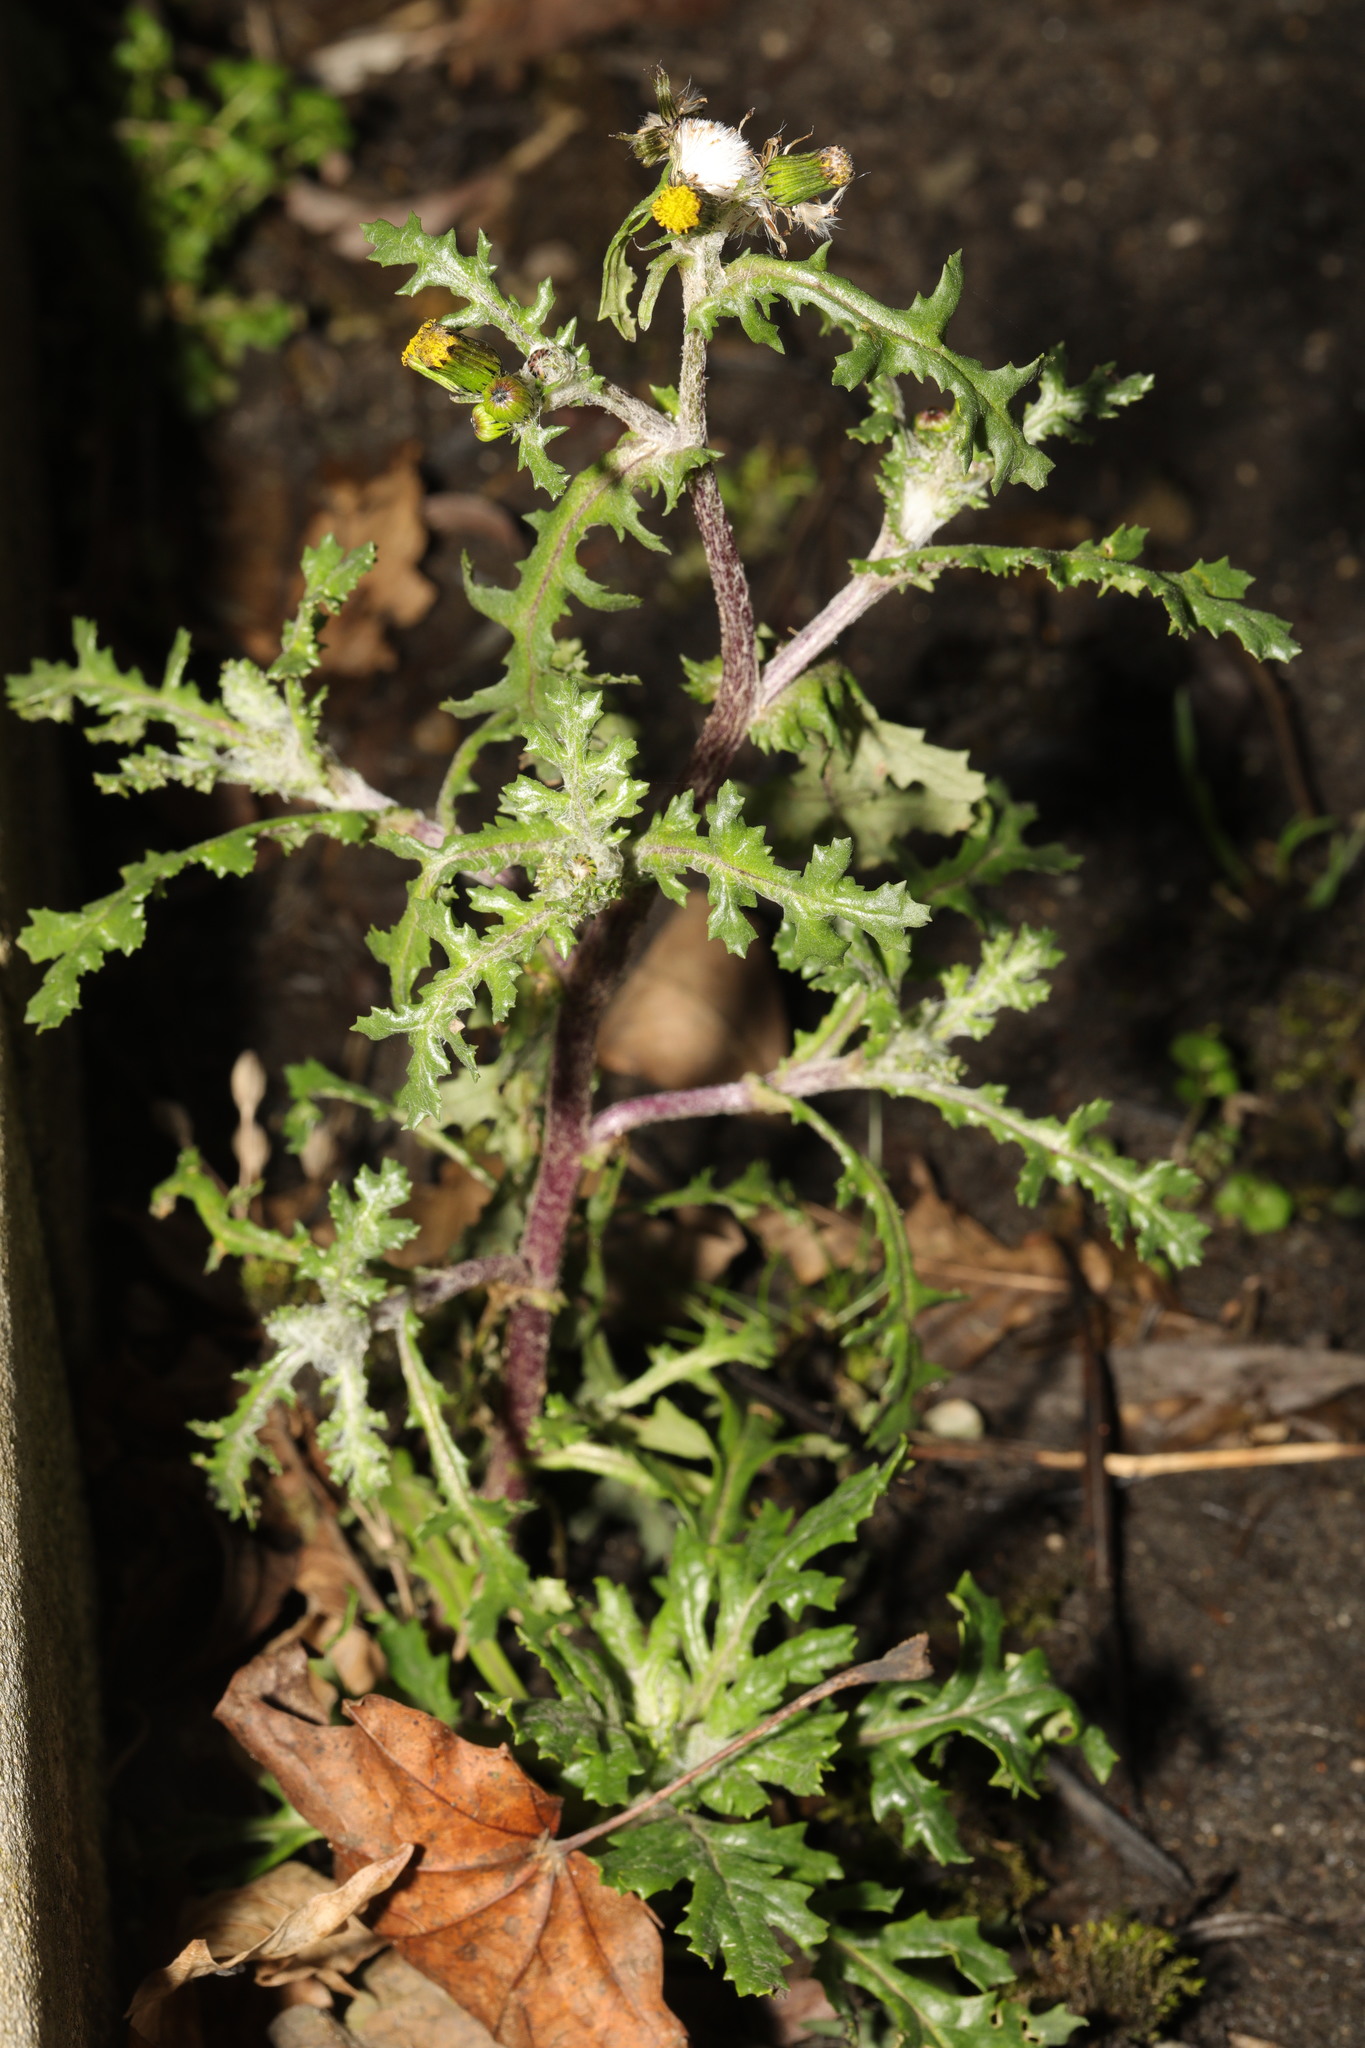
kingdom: Plantae
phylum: Tracheophyta
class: Magnoliopsida
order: Asterales
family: Asteraceae
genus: Senecio
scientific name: Senecio vulgaris
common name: Old-man-in-the-spring
